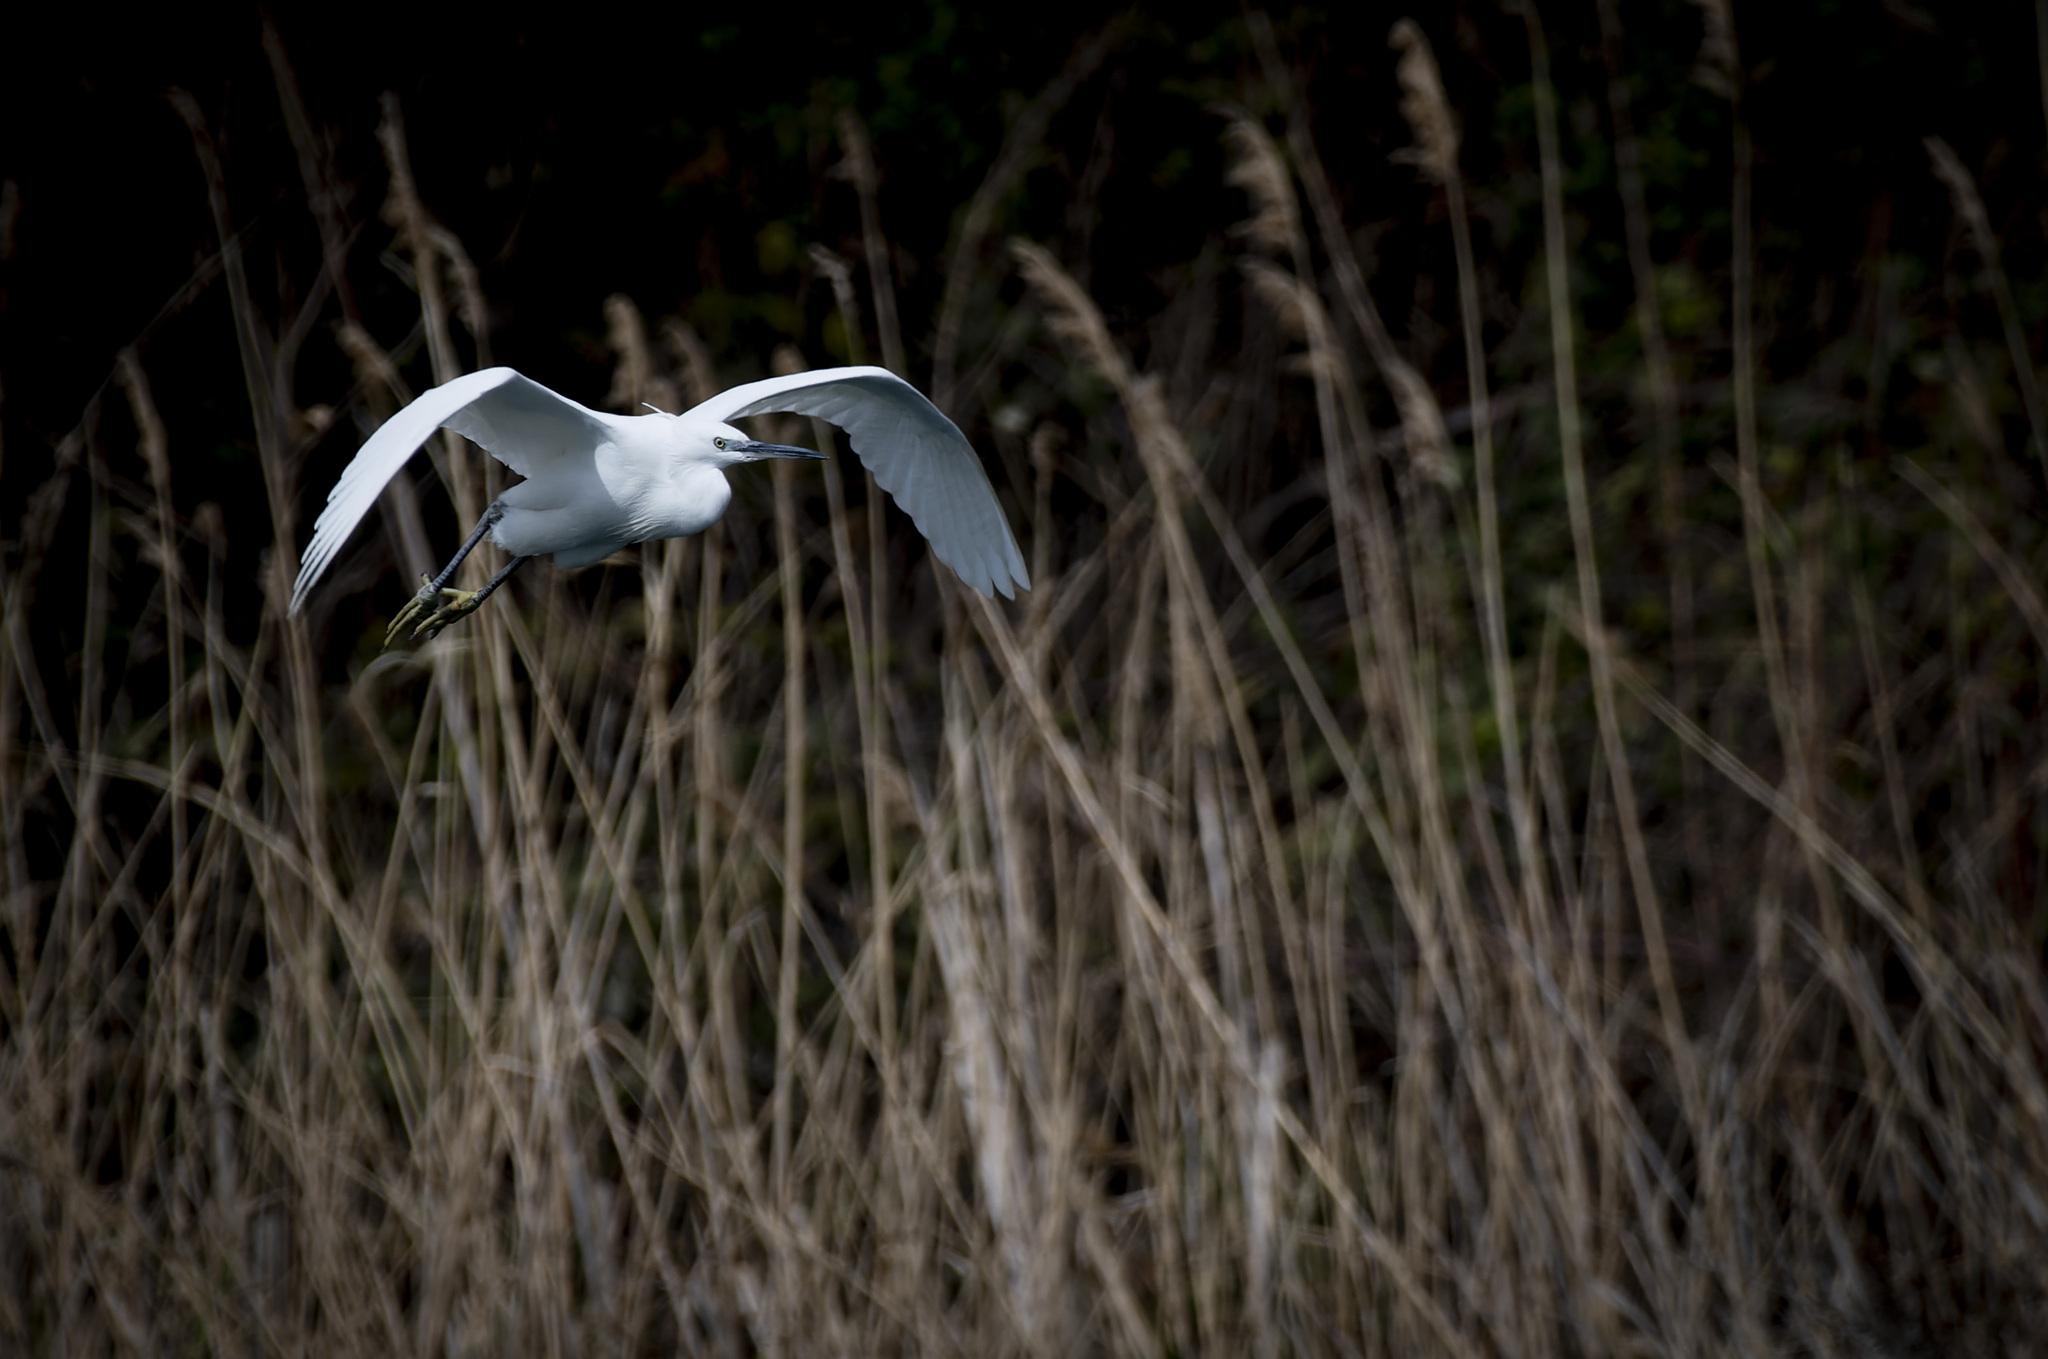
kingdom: Animalia
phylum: Chordata
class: Aves
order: Pelecaniformes
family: Ardeidae
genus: Egretta
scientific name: Egretta garzetta
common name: Little egret
